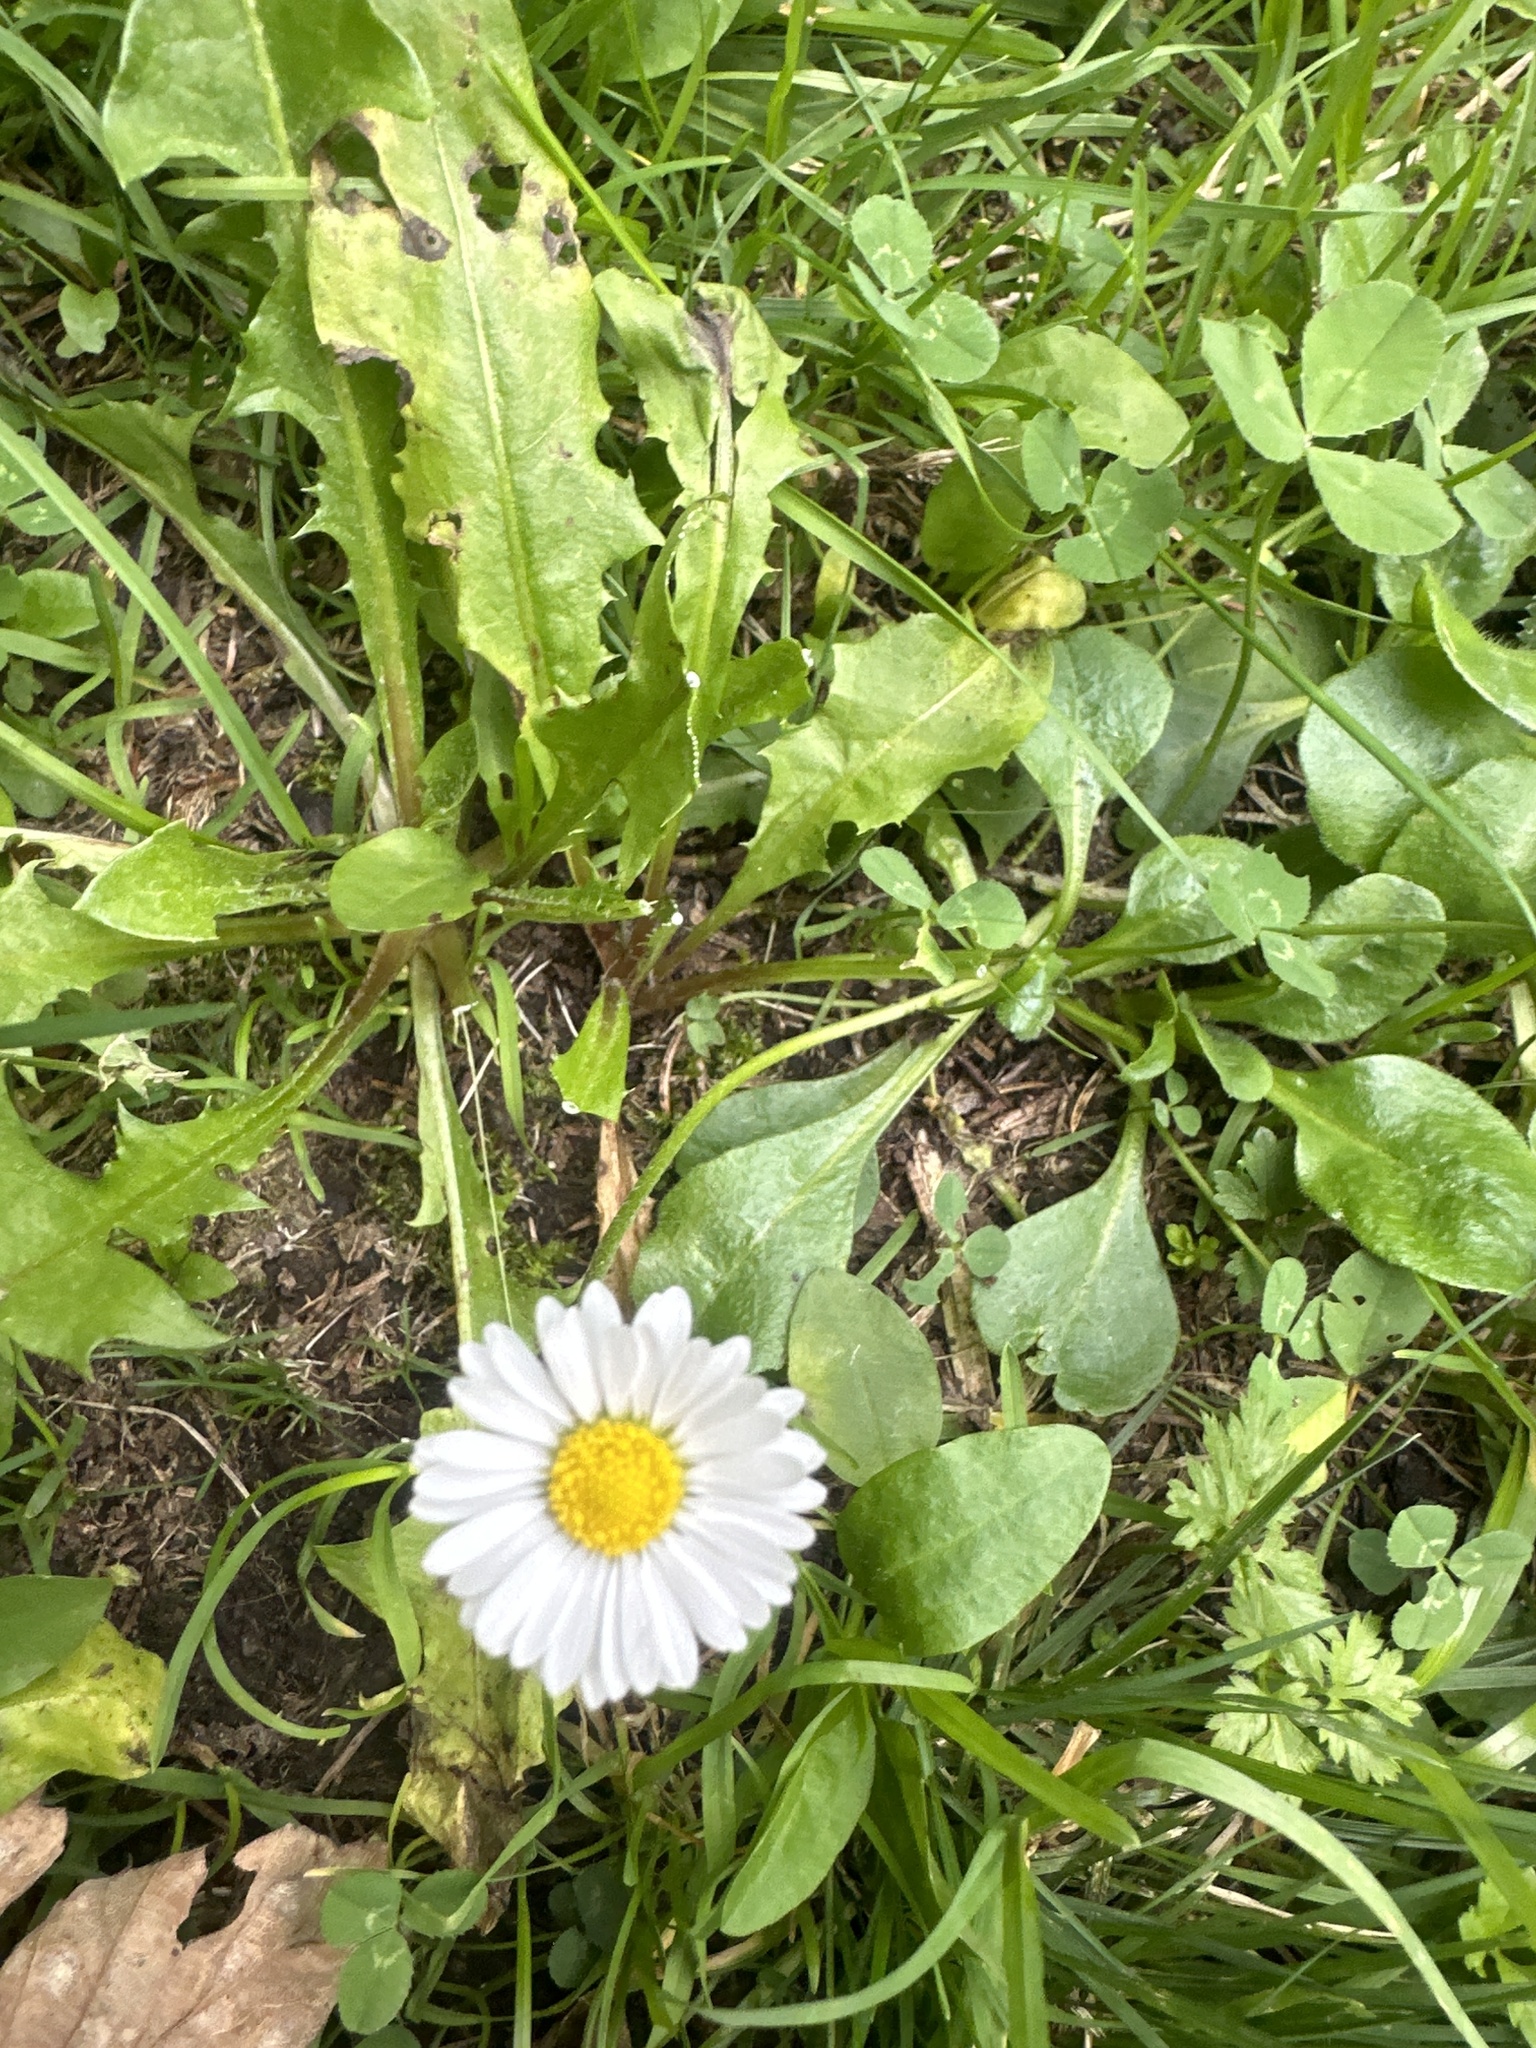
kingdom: Plantae
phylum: Tracheophyta
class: Magnoliopsida
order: Asterales
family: Asteraceae
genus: Bellis
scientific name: Bellis perennis
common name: Lawndaisy
